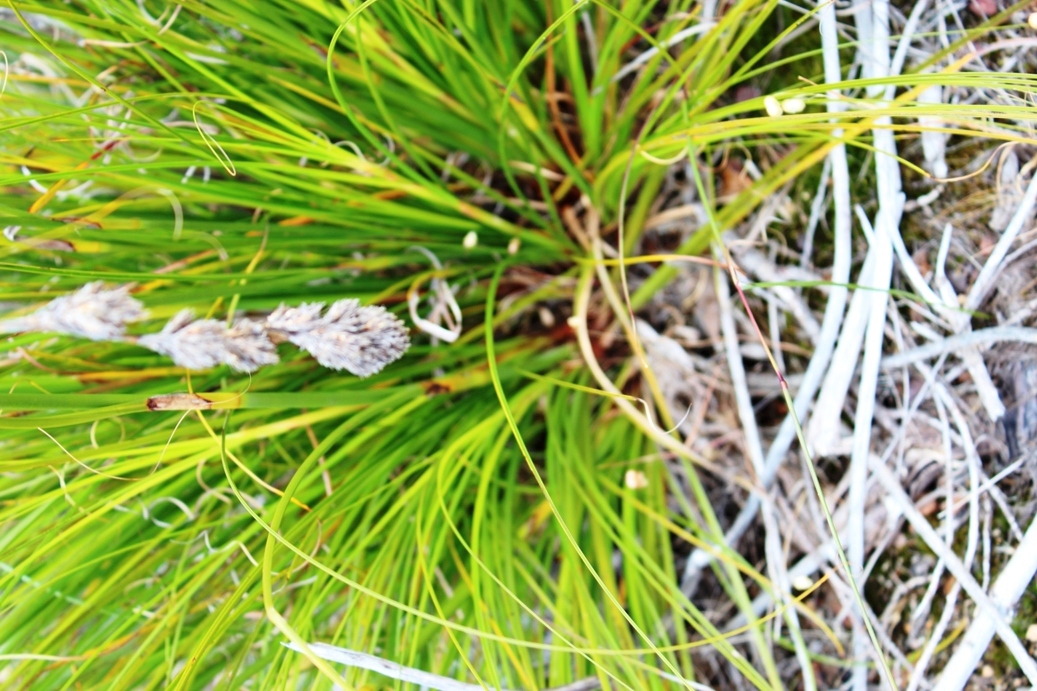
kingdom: Plantae
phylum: Tracheophyta
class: Liliopsida
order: Poales
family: Cyperaceae
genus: Tetraria
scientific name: Tetraria bromoides
